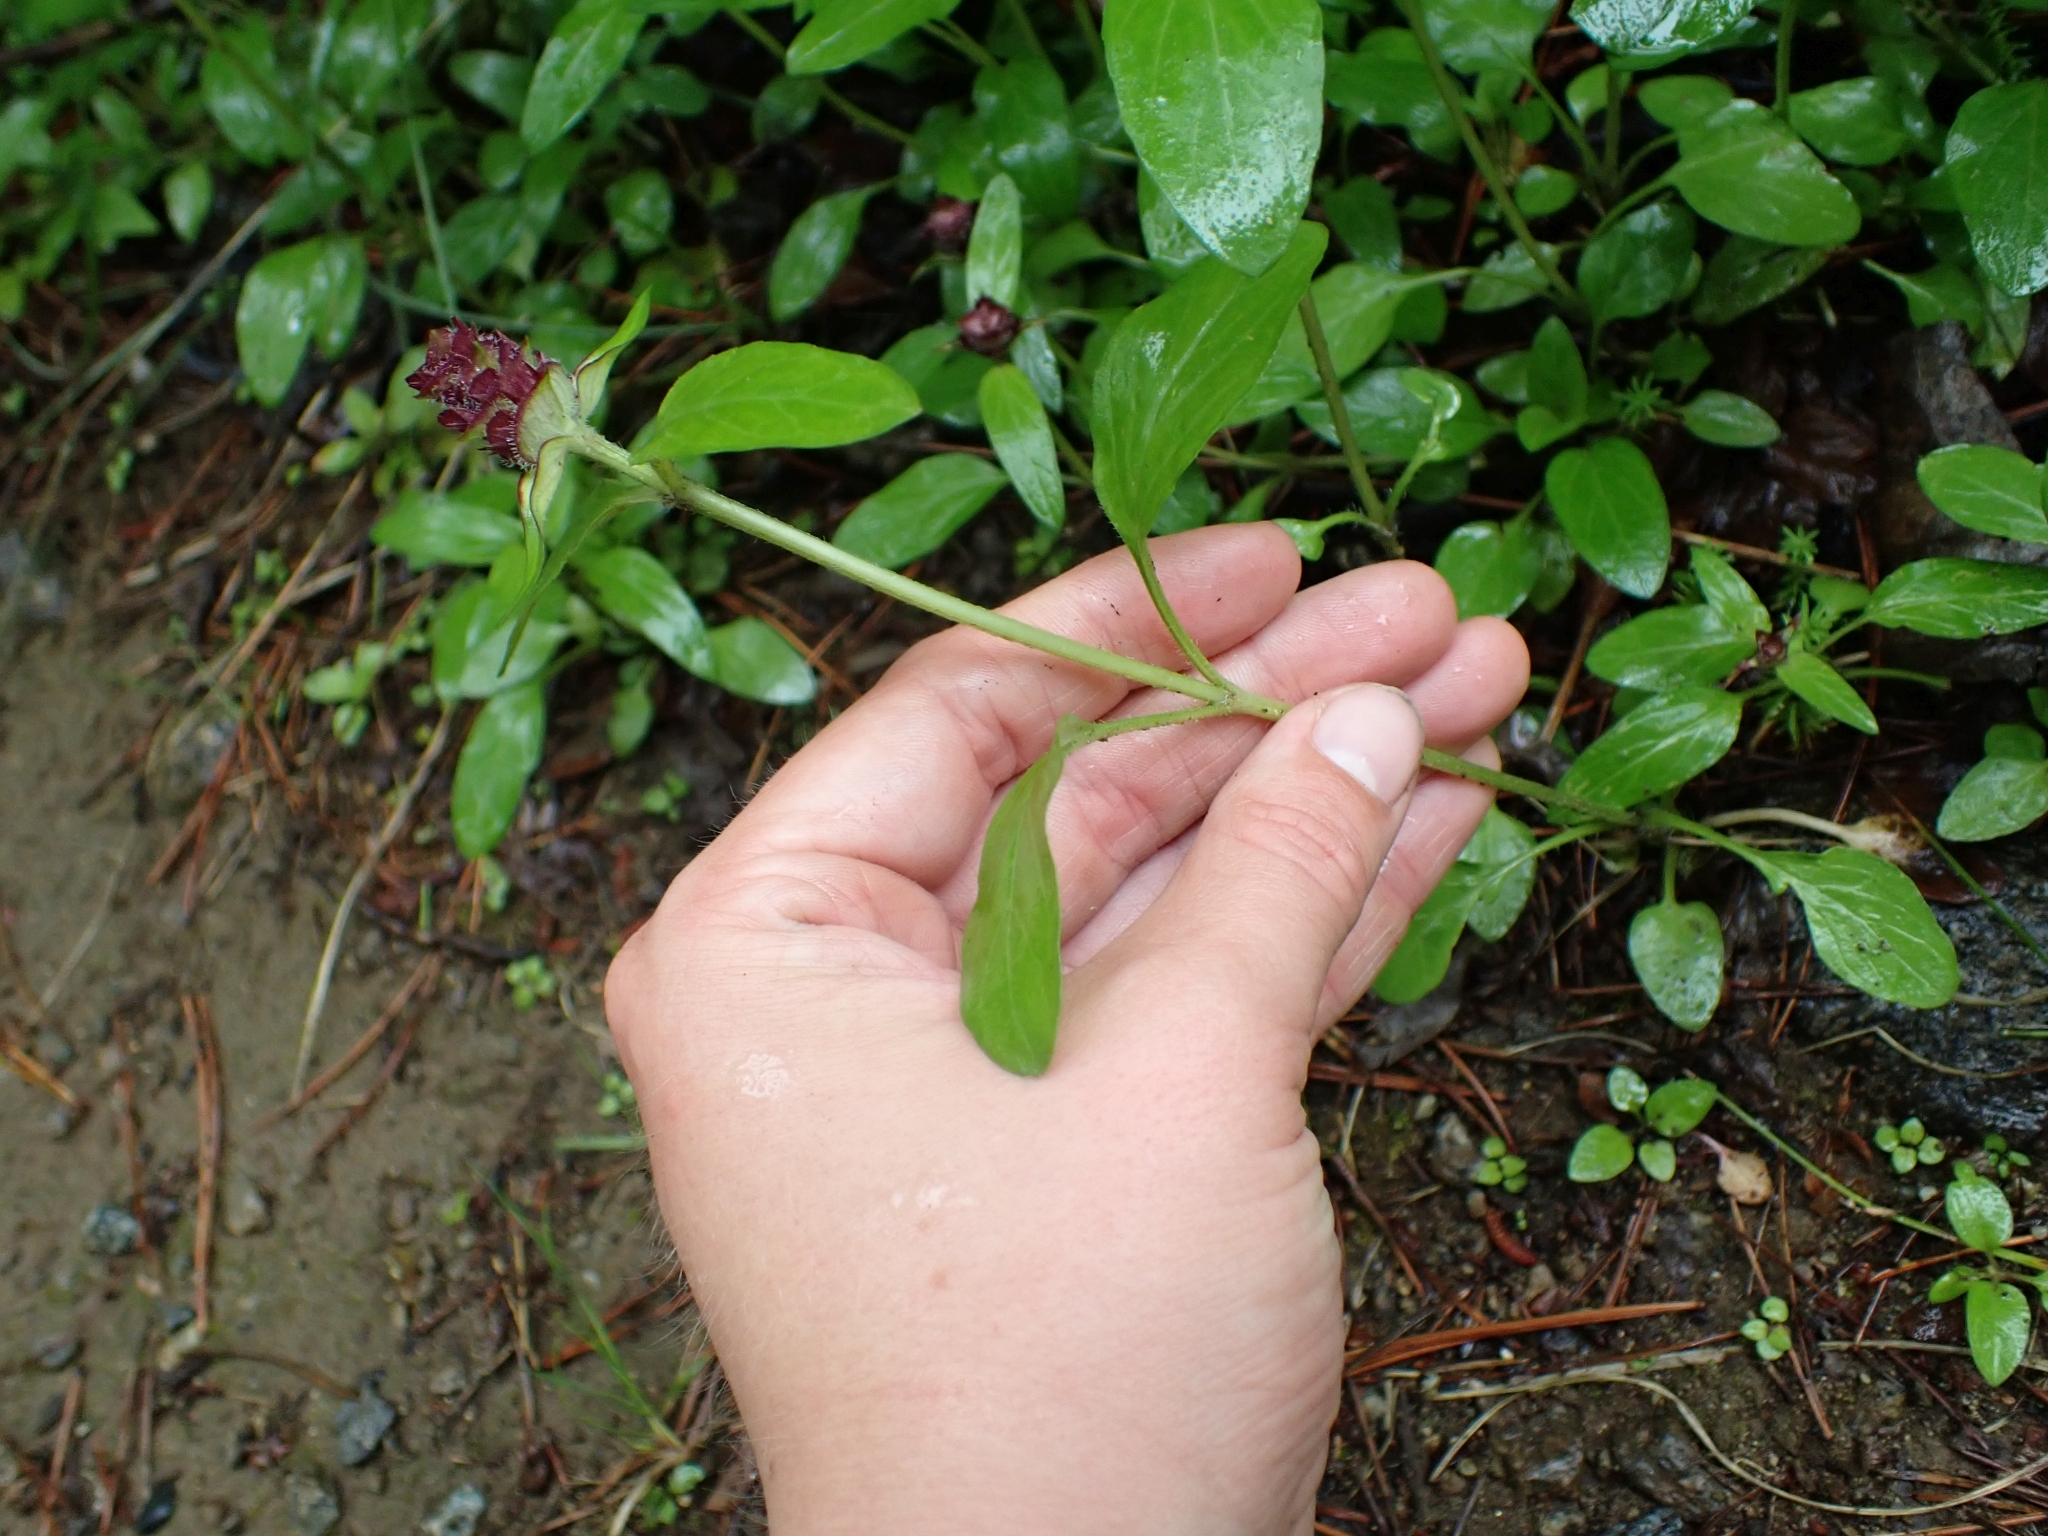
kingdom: Plantae
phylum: Tracheophyta
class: Magnoliopsida
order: Lamiales
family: Lamiaceae
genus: Prunella
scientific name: Prunella vulgaris
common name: Heal-all
